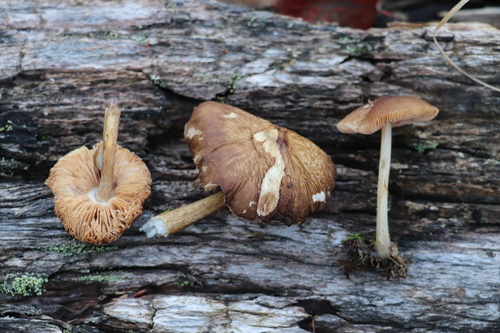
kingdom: Fungi
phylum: Basidiomycota
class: Agaricomycetes
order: Agaricales
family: Pluteaceae
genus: Pluteus
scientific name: Pluteus
